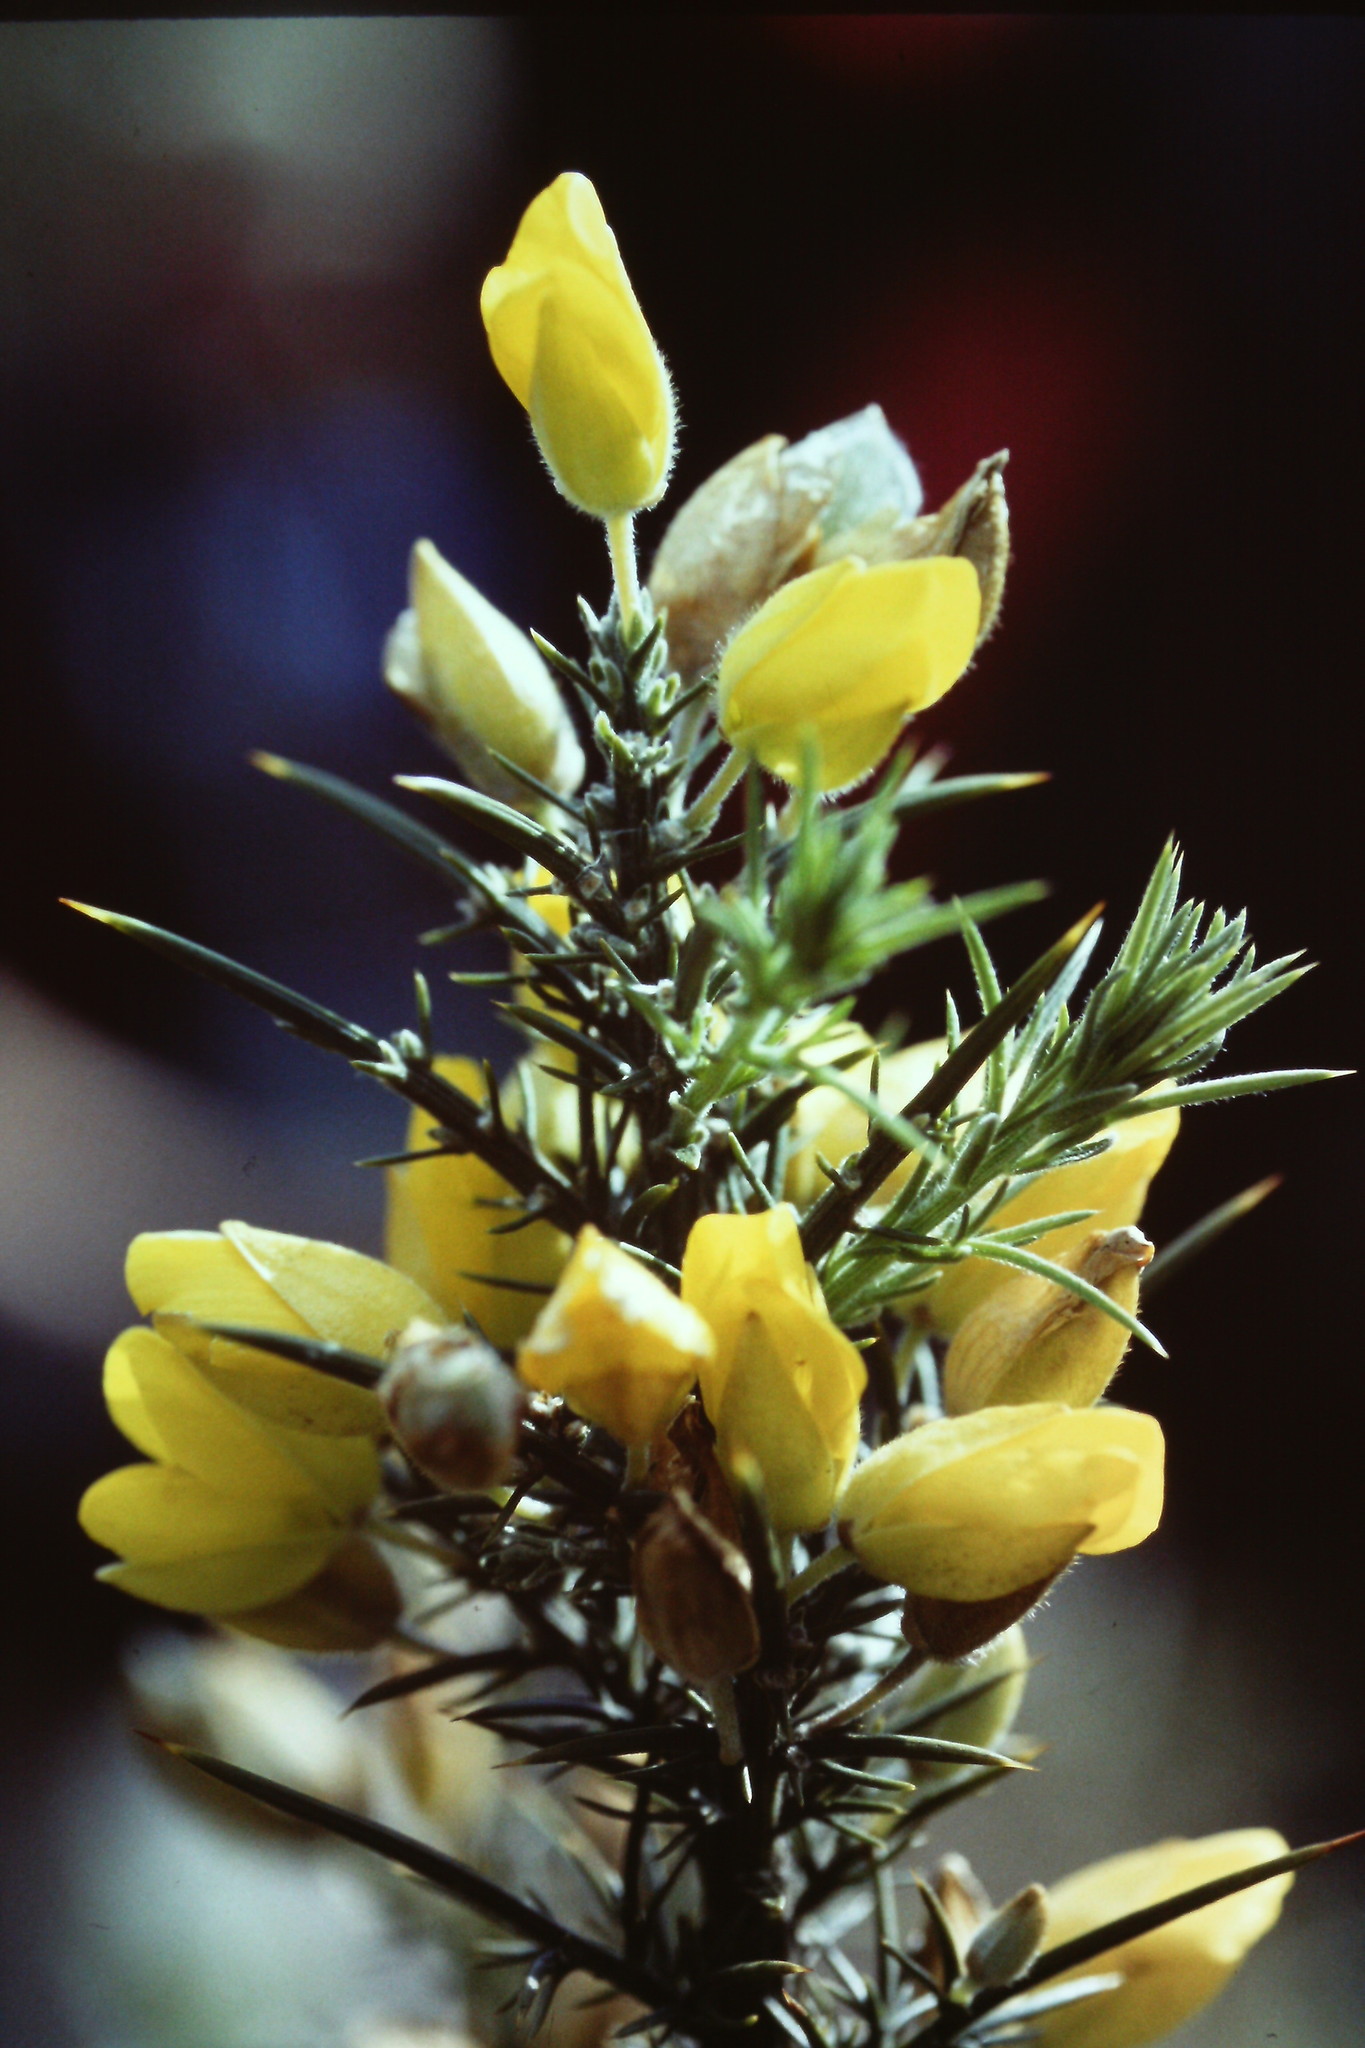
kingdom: Plantae
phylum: Tracheophyta
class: Magnoliopsida
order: Fabales
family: Fabaceae
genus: Ulex
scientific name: Ulex europaeus
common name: Common gorse
